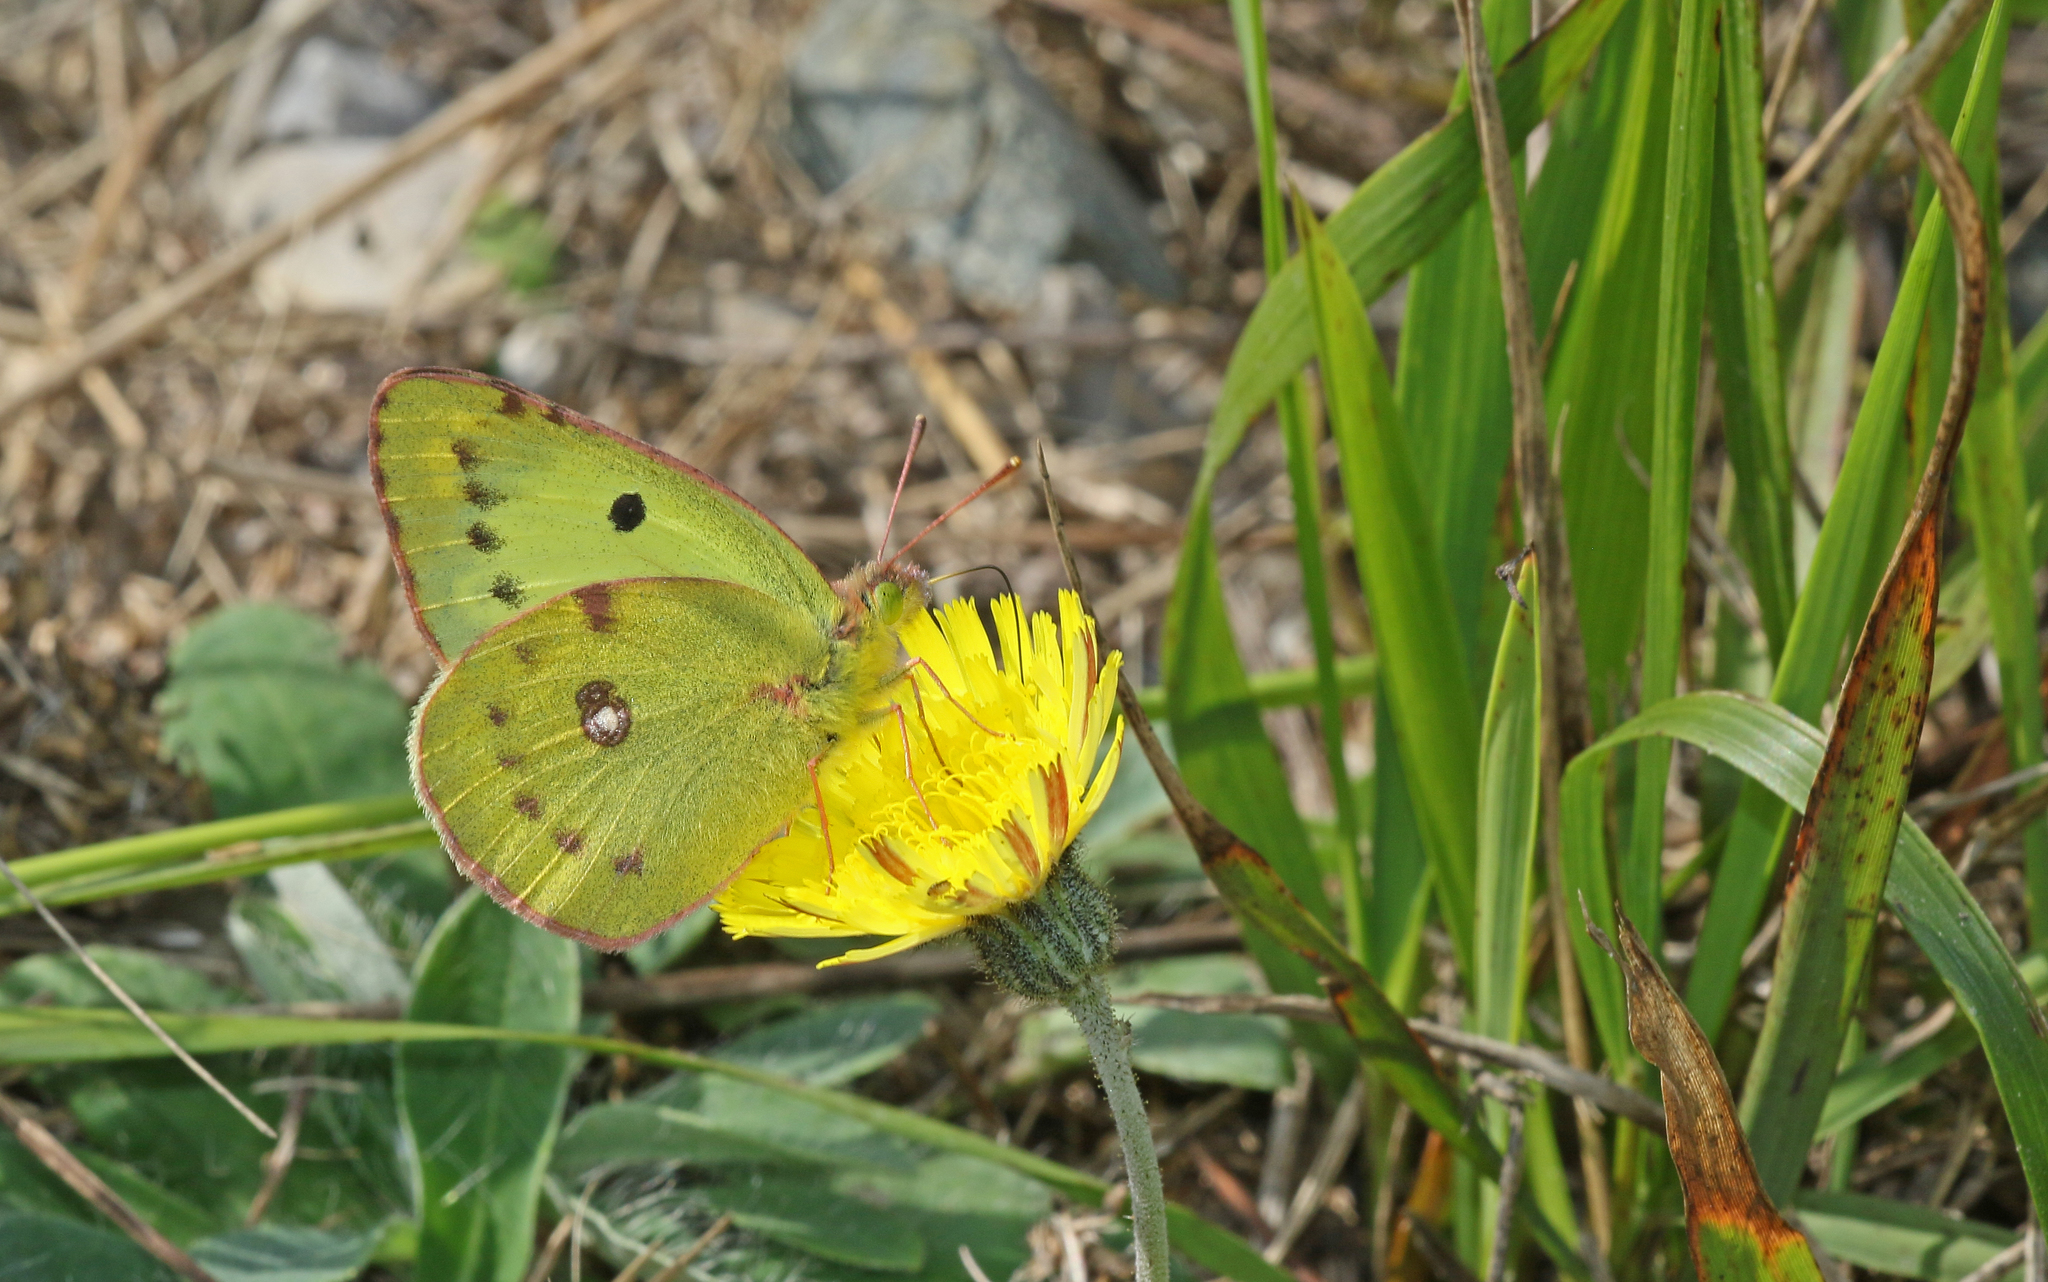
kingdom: Animalia
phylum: Arthropoda
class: Insecta
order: Lepidoptera
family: Pieridae
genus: Colias
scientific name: Colias alfacariensis
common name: Berger's clouded yellow
